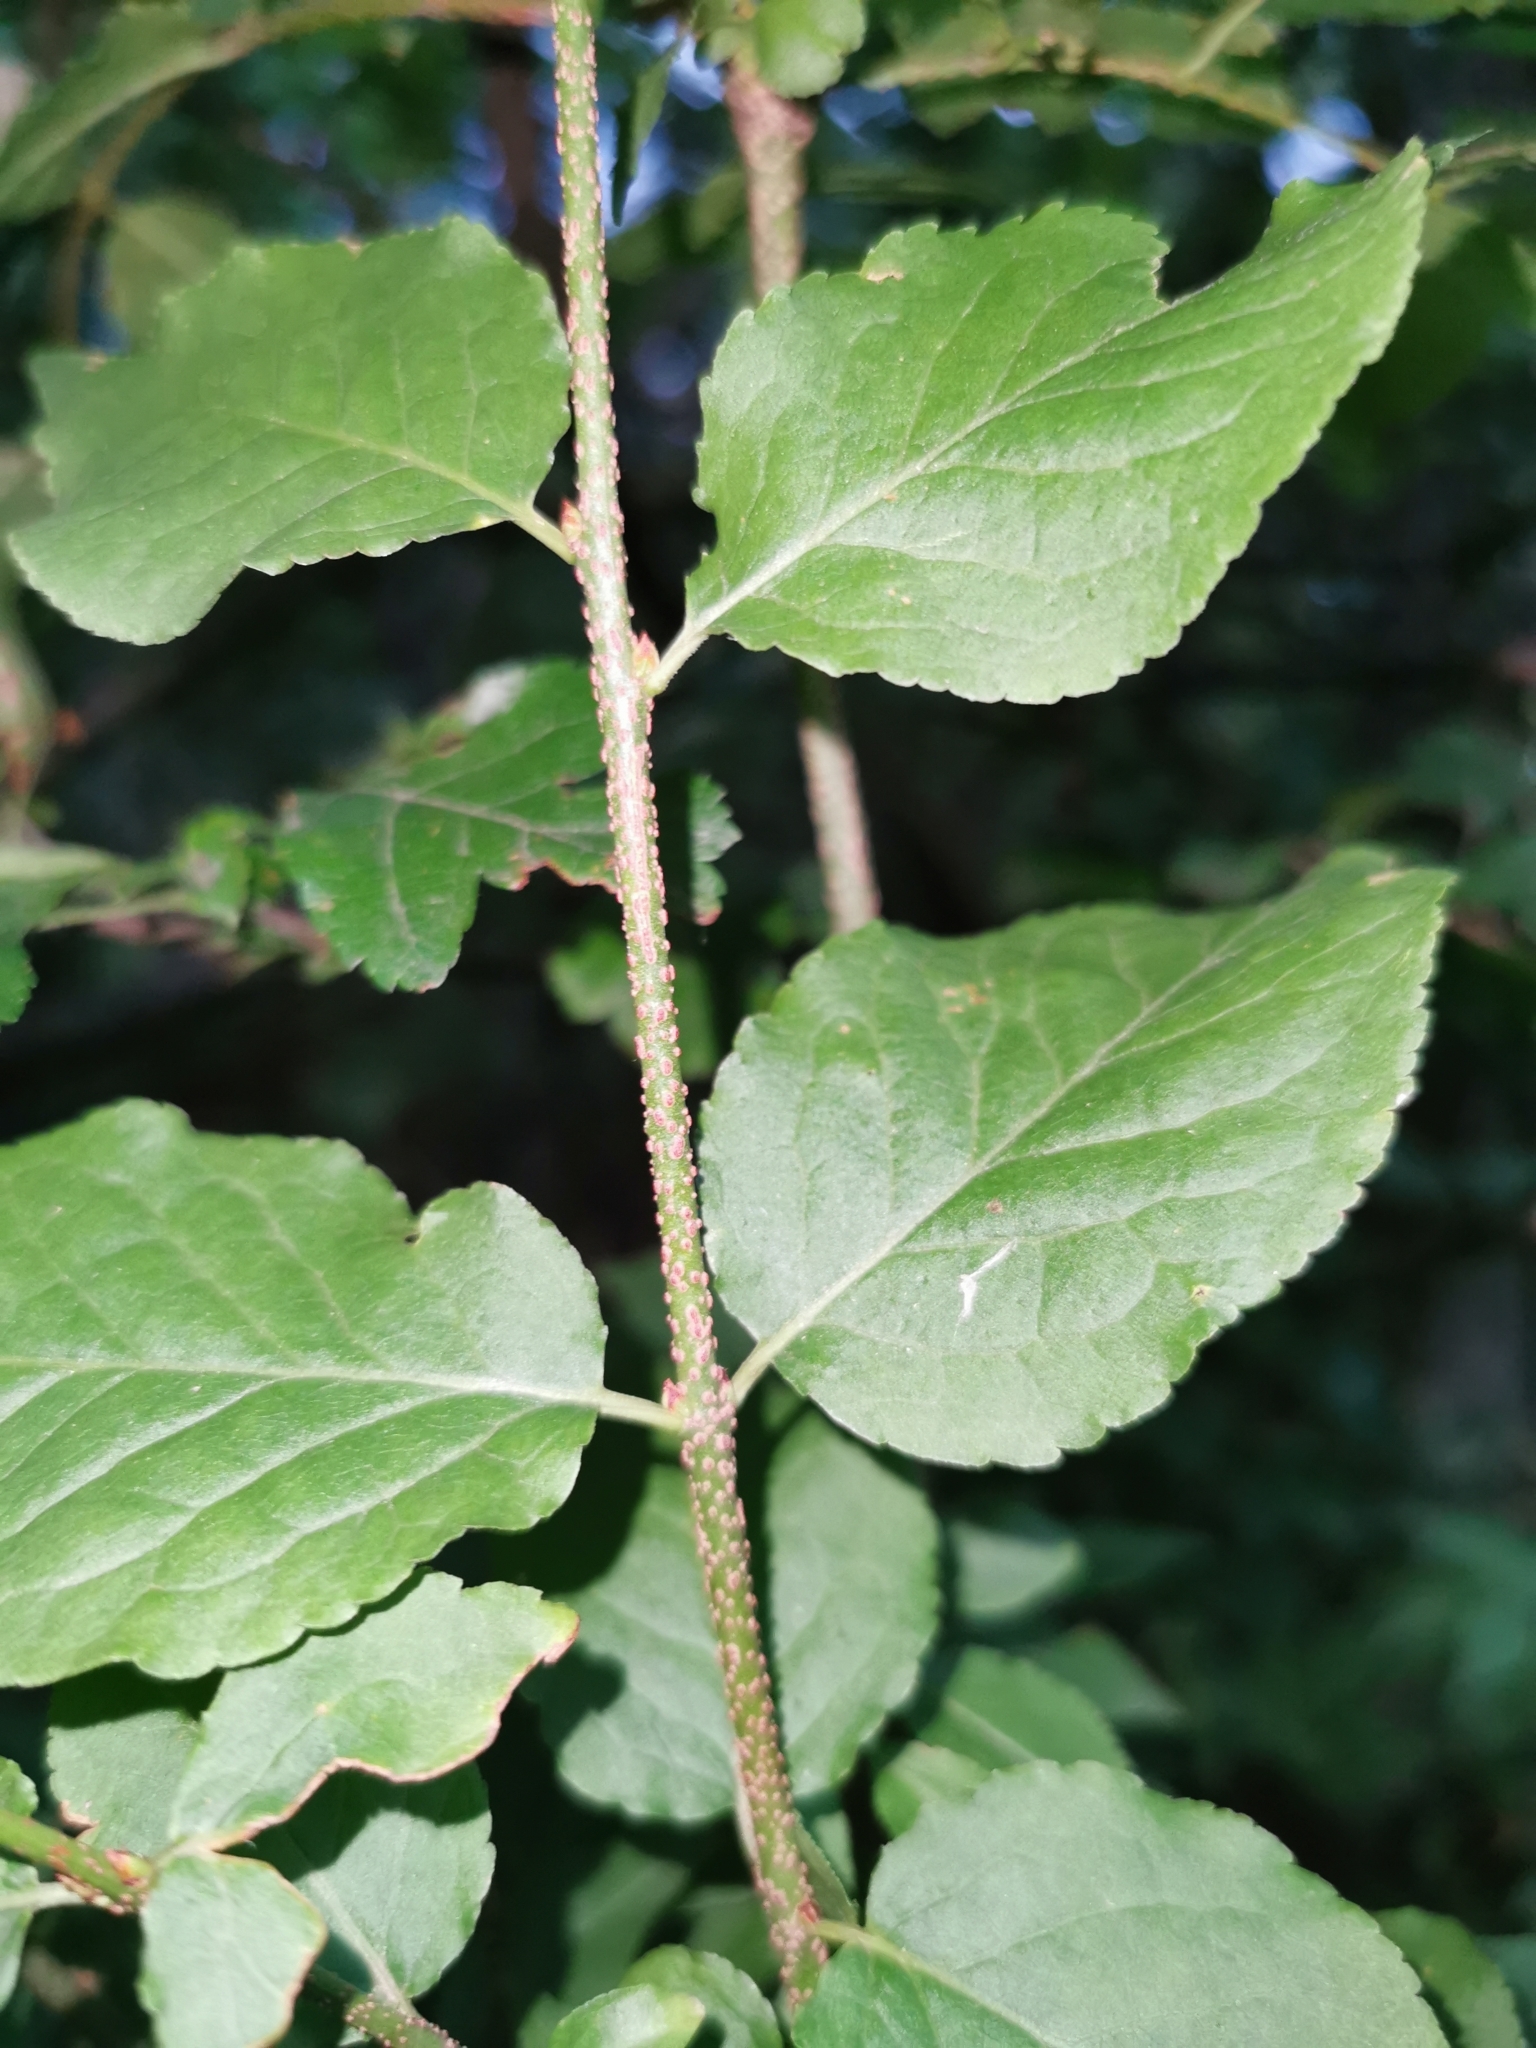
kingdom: Plantae
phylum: Tracheophyta
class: Magnoliopsida
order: Celastrales
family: Celastraceae
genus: Euonymus
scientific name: Euonymus verrucosus
